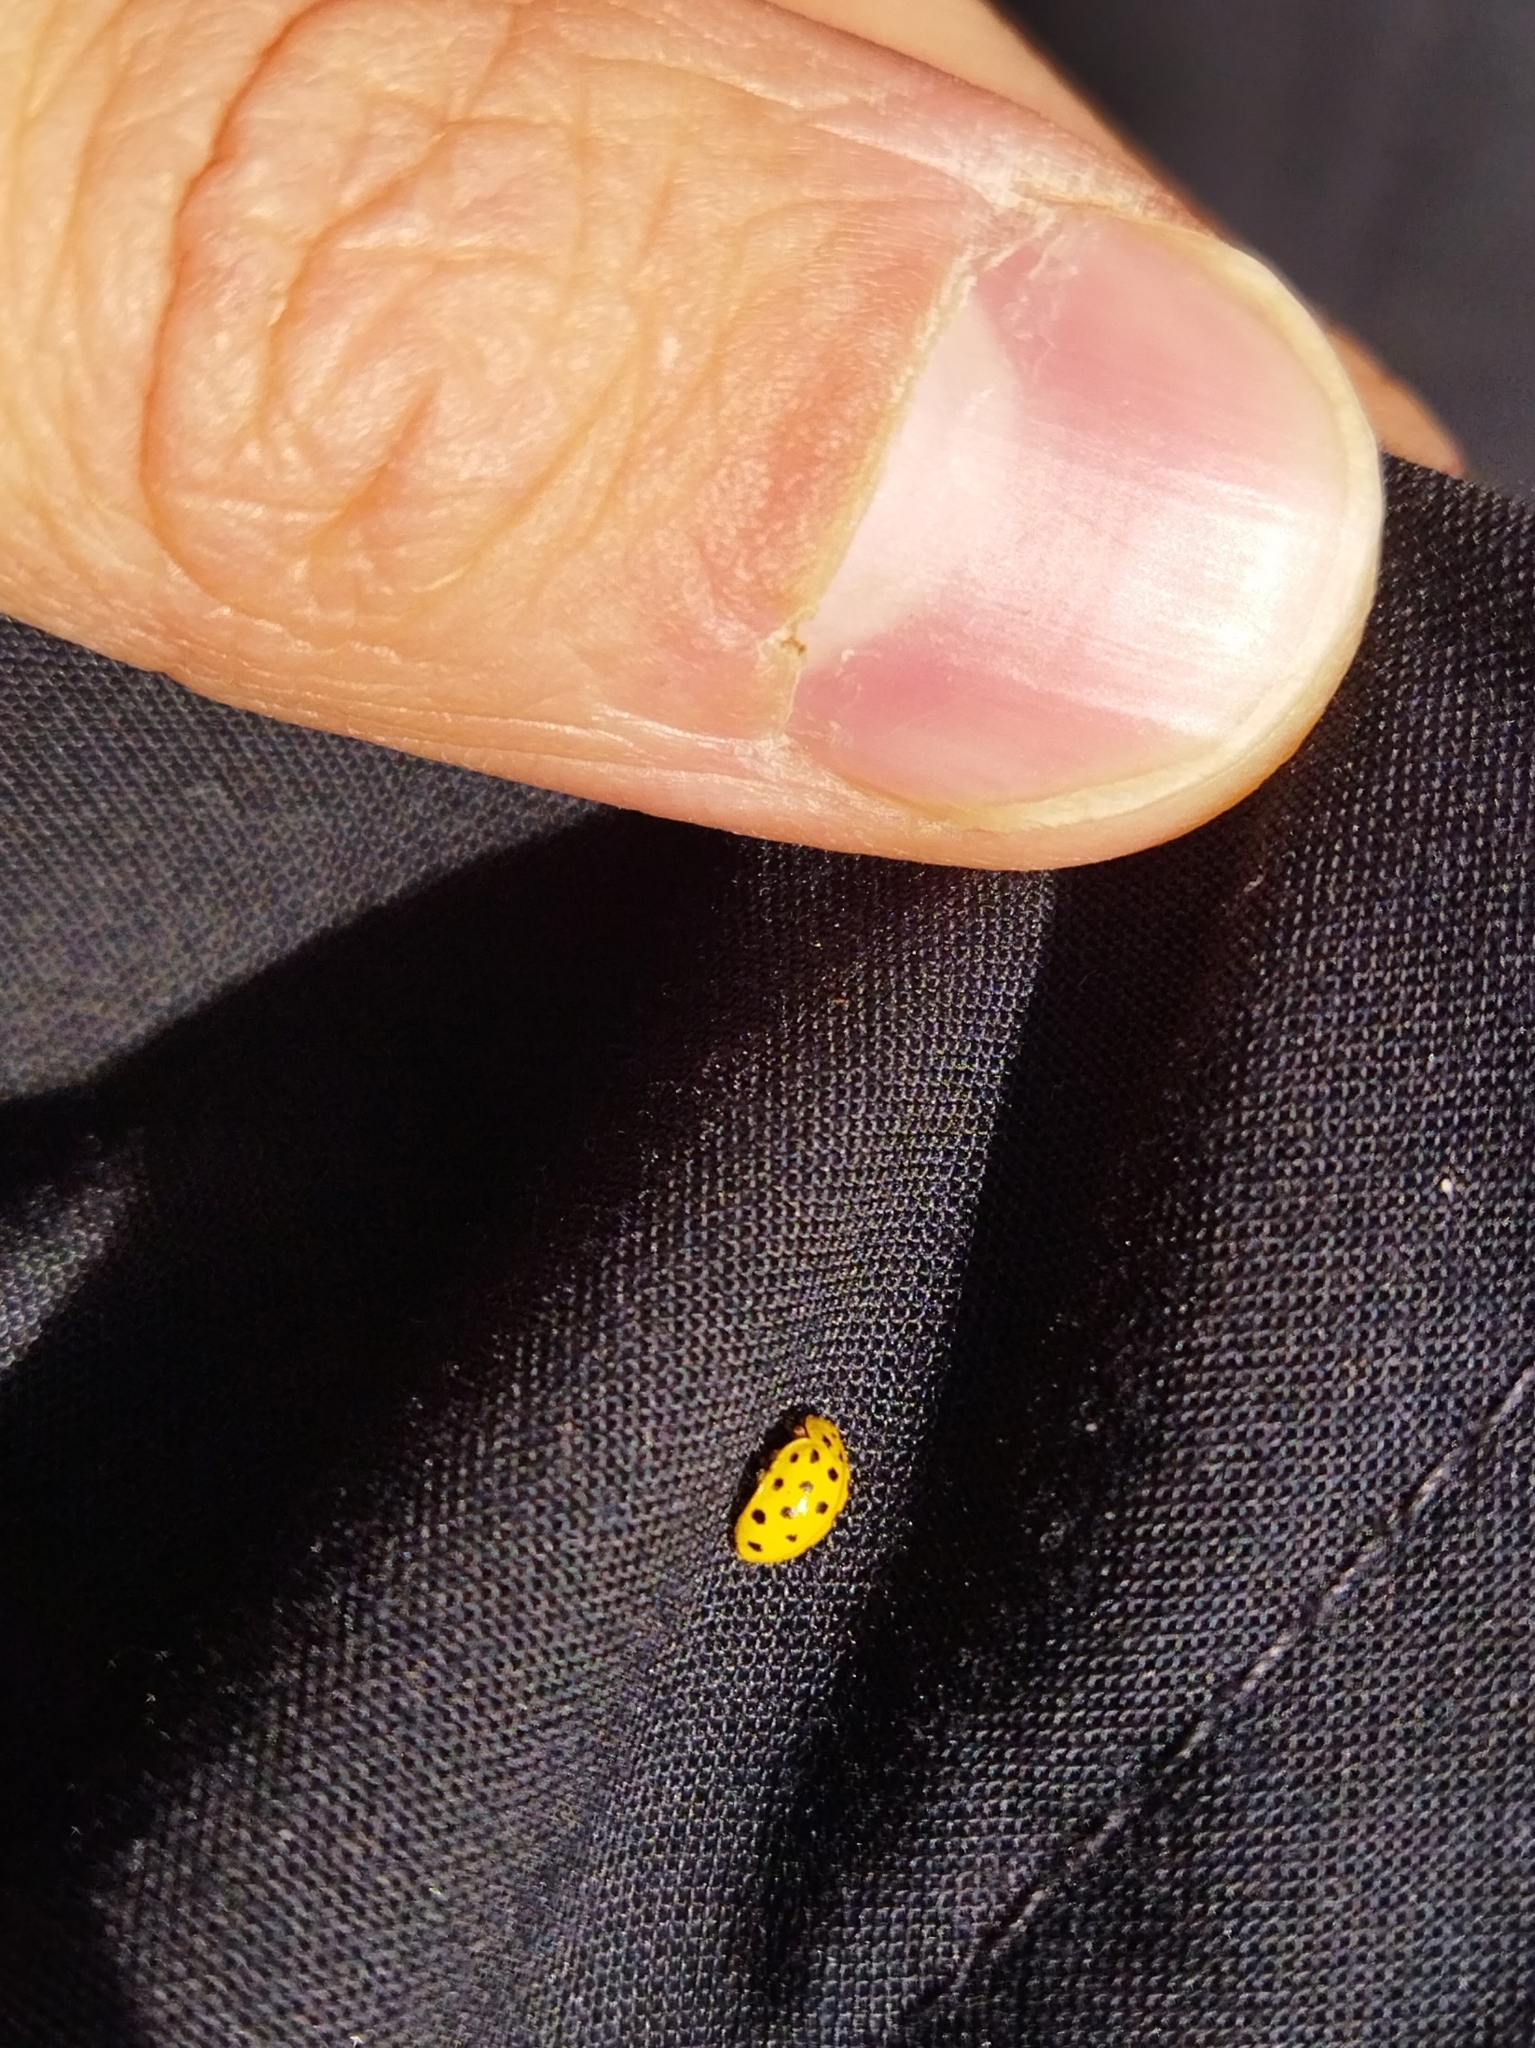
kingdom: Animalia
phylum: Arthropoda
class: Insecta
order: Coleoptera
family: Coccinellidae
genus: Psyllobora
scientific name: Psyllobora vigintiduopunctata
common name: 22-spot ladybird
